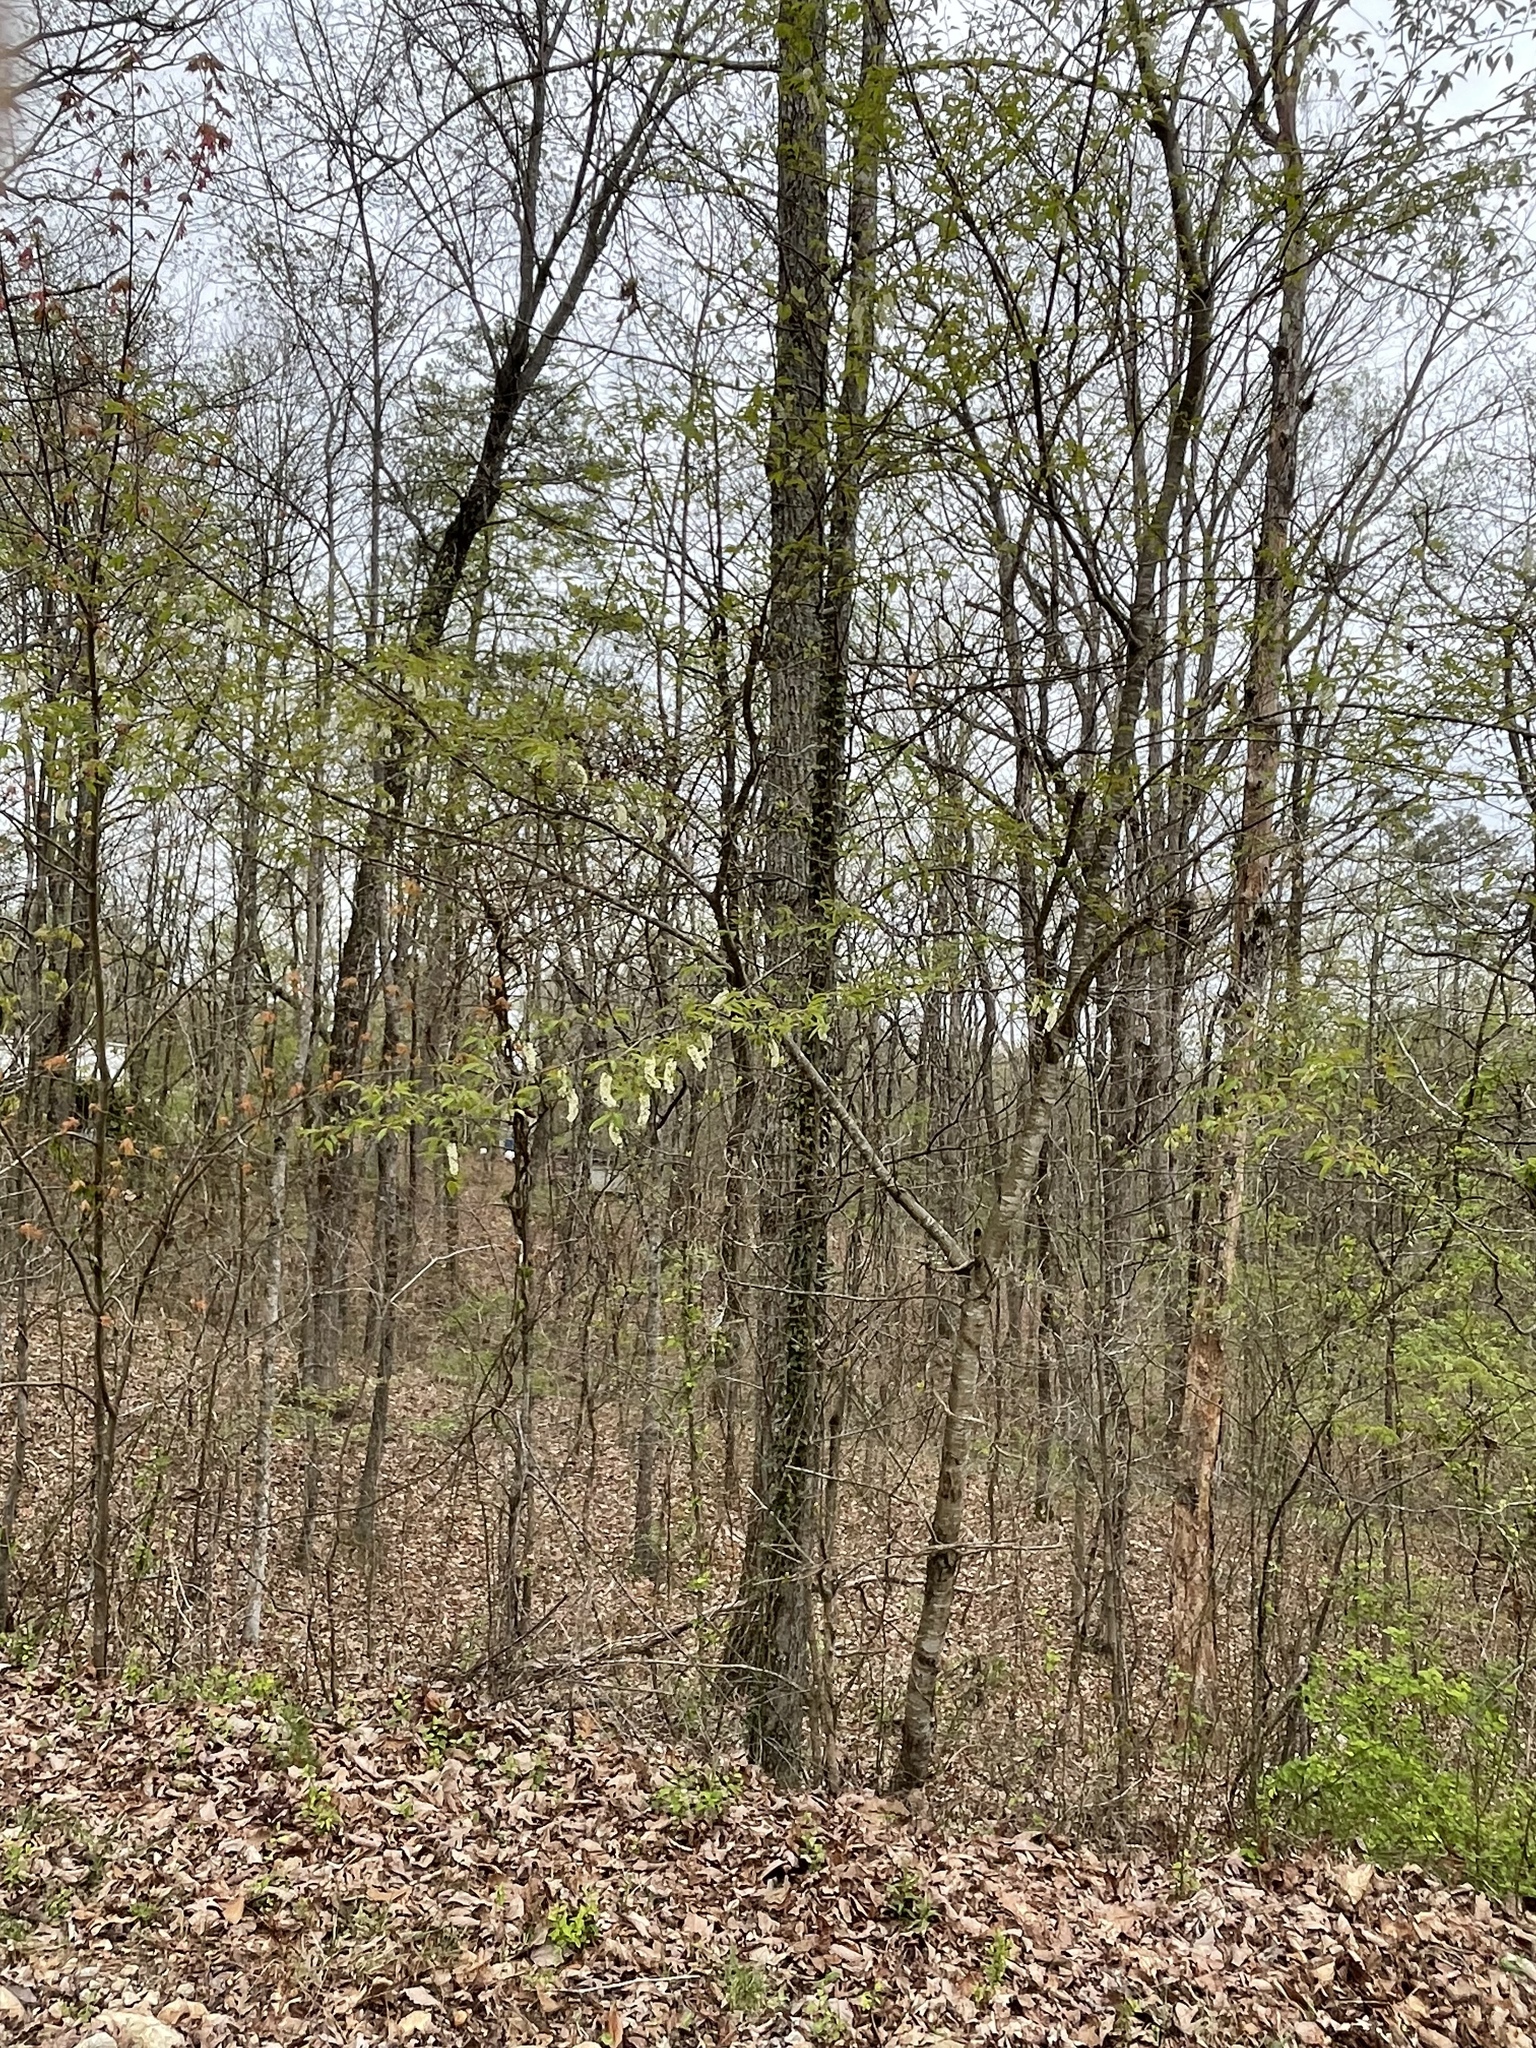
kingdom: Plantae
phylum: Tracheophyta
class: Magnoliopsida
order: Rosales
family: Rosaceae
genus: Prunus
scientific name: Prunus serotina
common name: Black cherry
